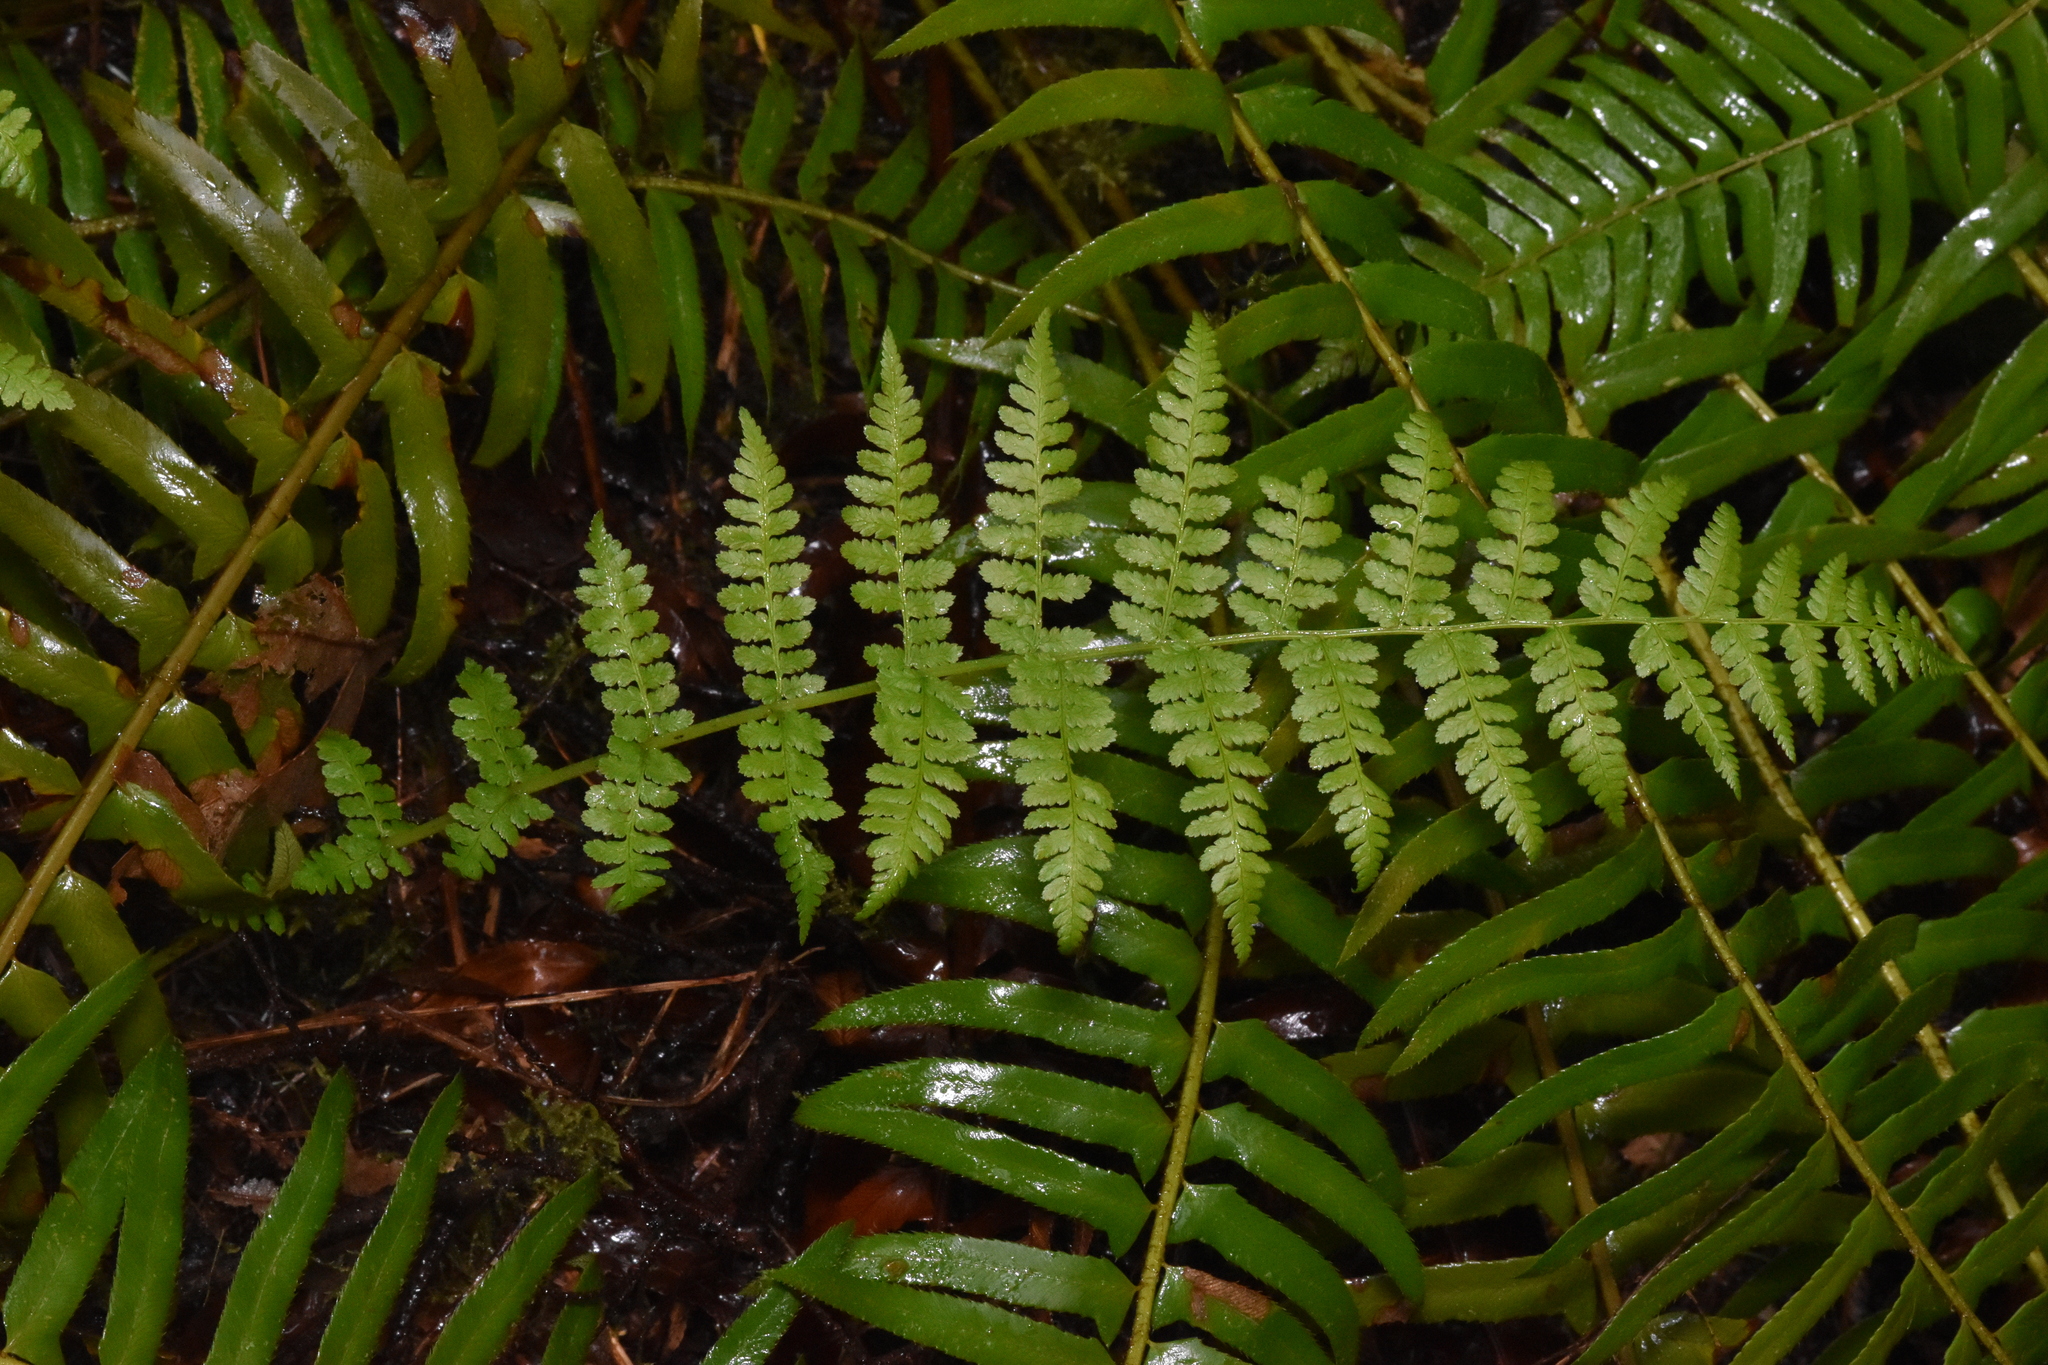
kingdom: Plantae
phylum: Tracheophyta
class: Polypodiopsida
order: Polypodiales
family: Athyriaceae
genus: Athyrium
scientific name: Athyrium filix-femina
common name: Lady fern
